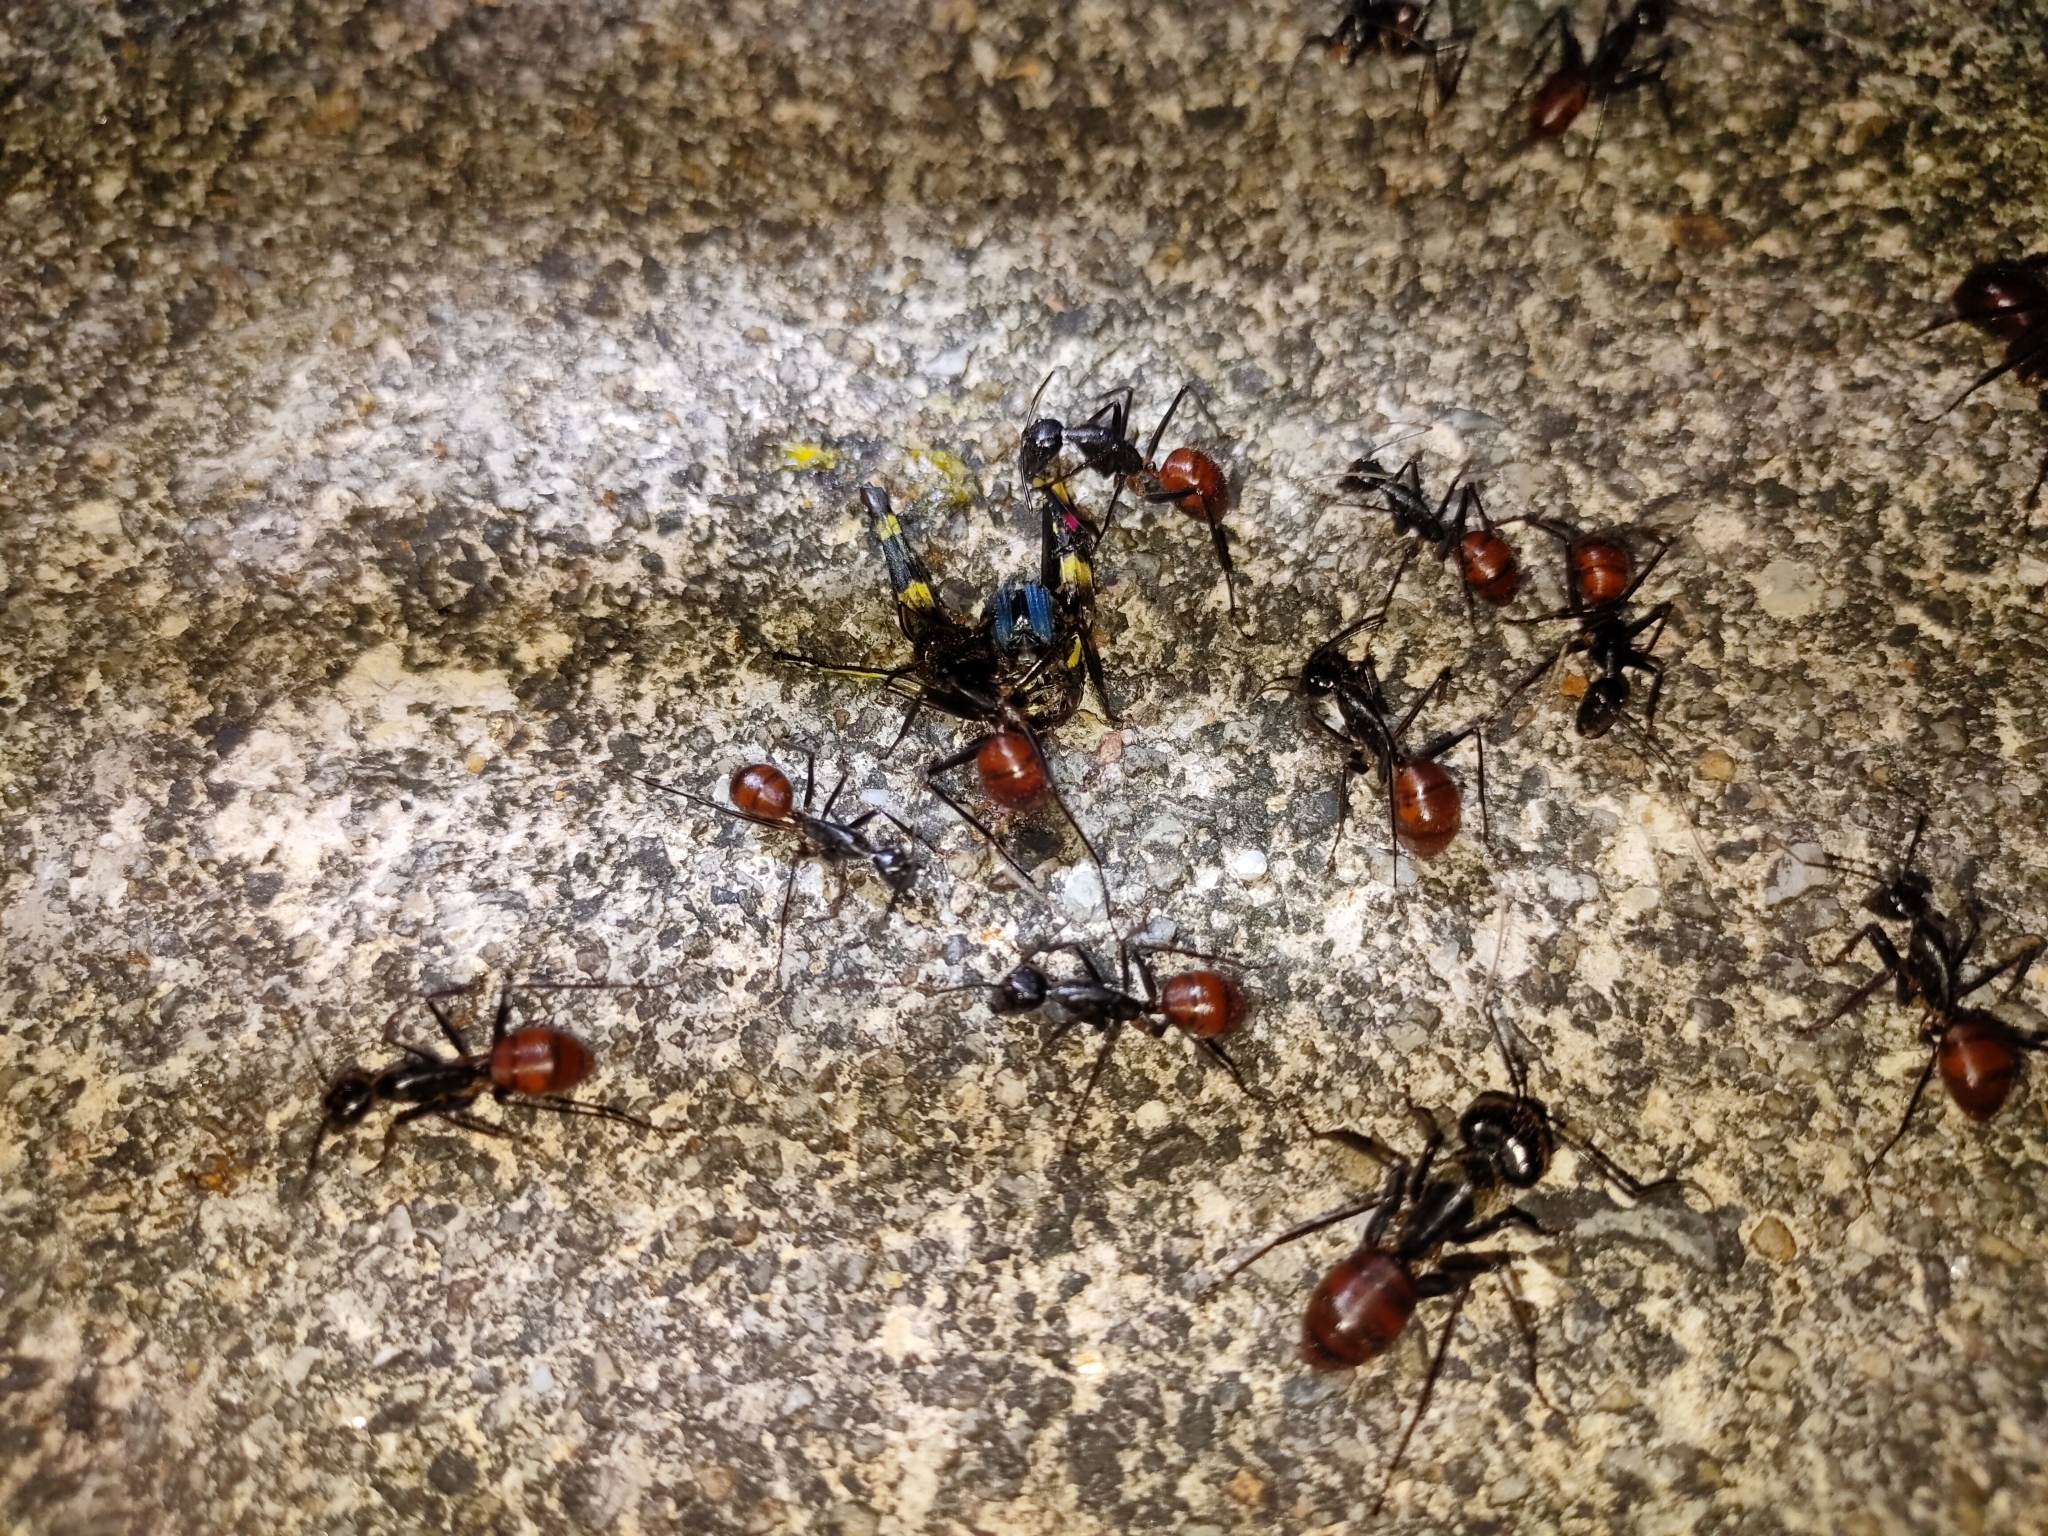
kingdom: Animalia
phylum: Arthropoda
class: Insecta
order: Hymenoptera
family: Formicidae
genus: Dinomyrmex
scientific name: Dinomyrmex
